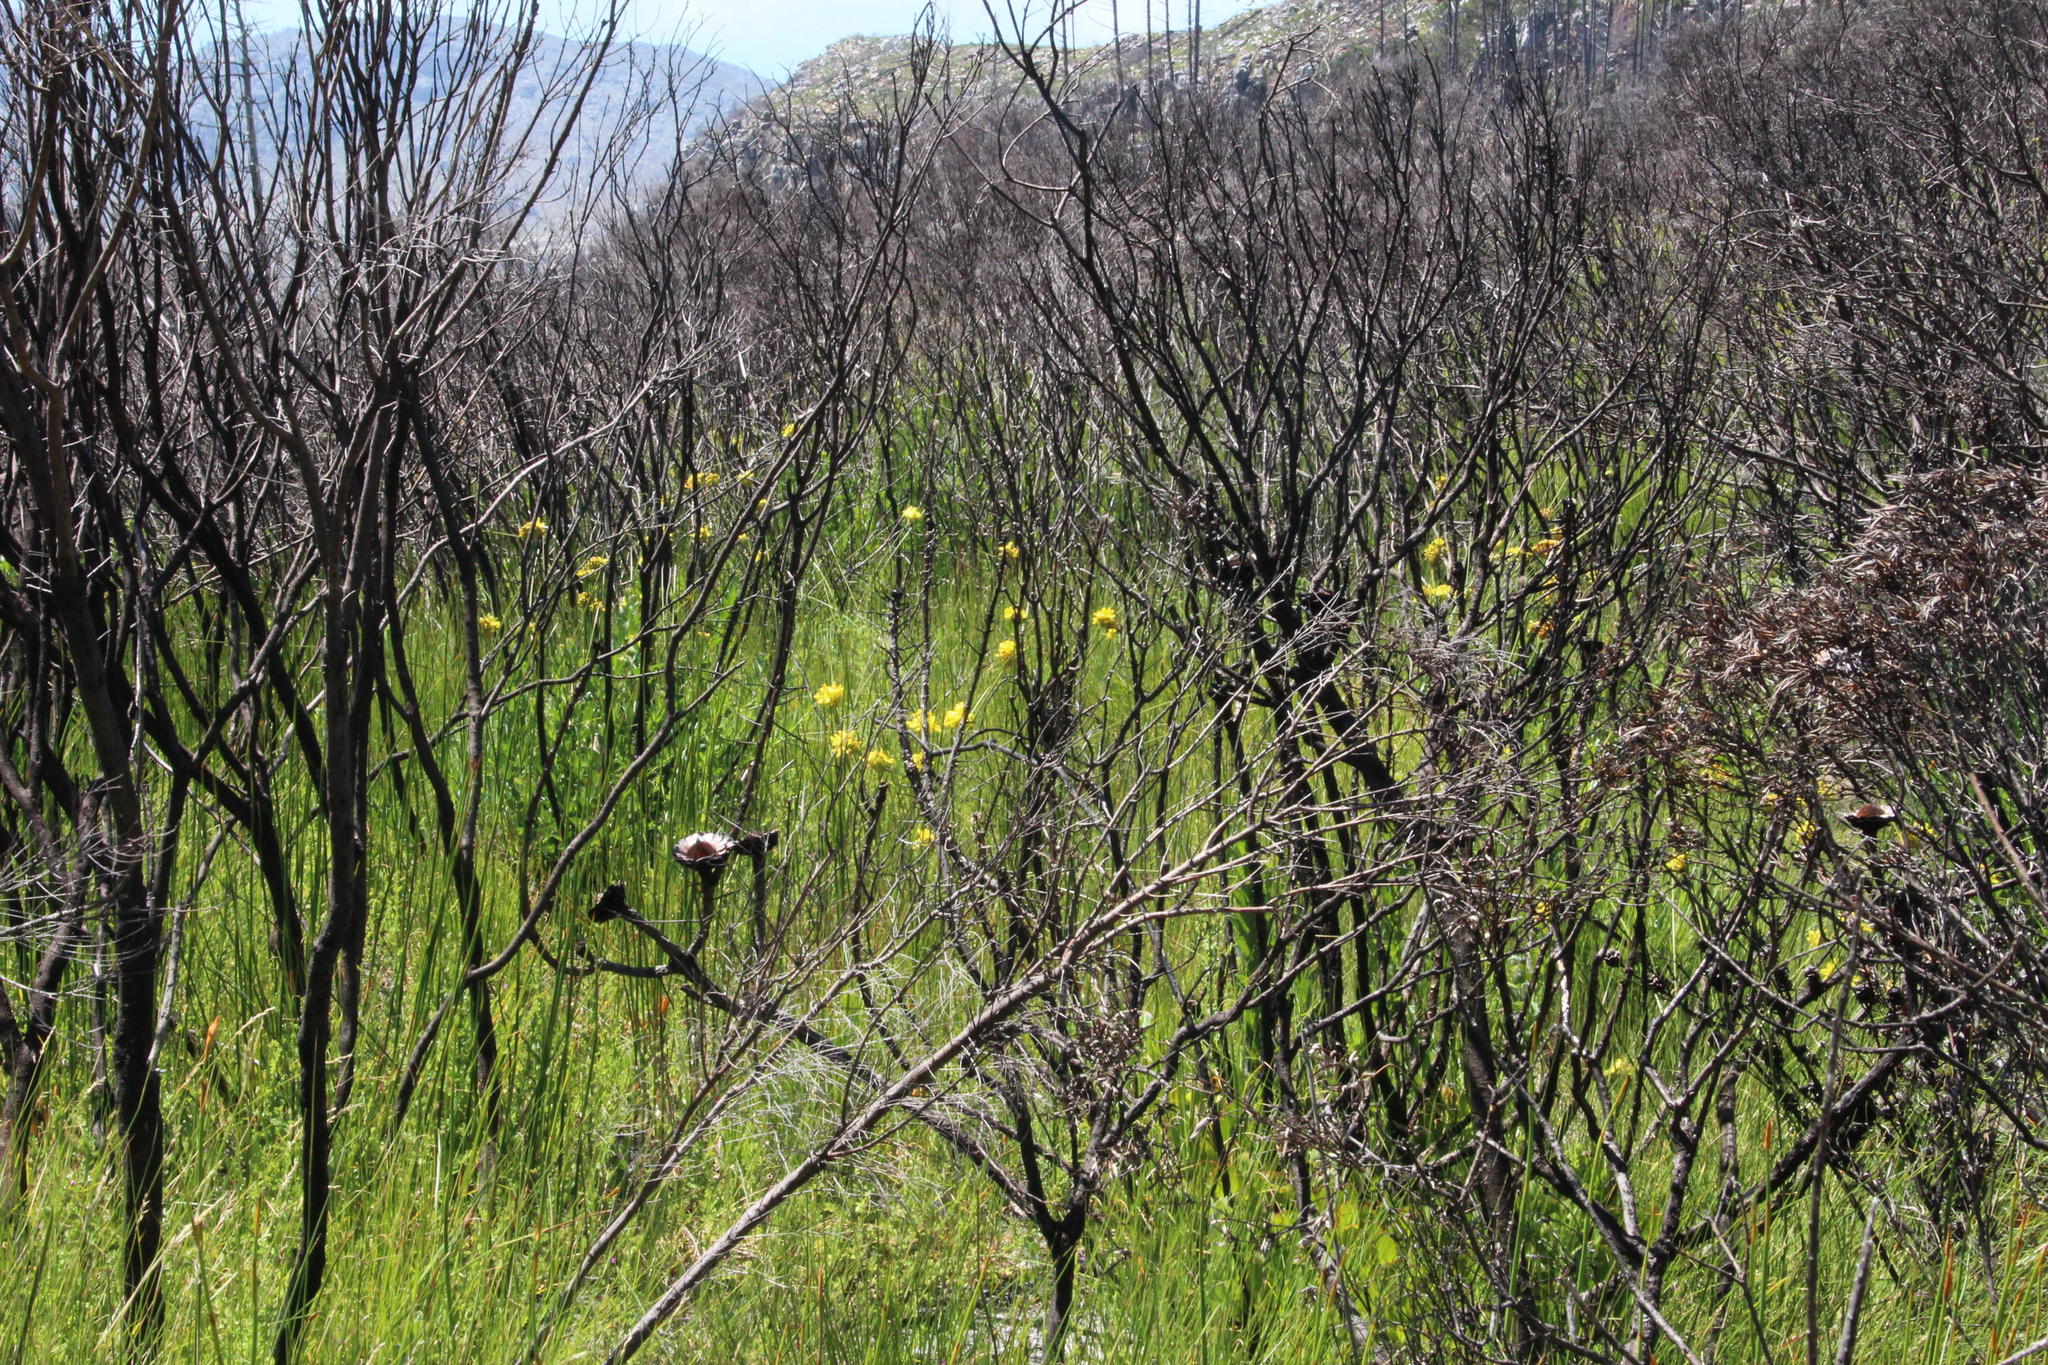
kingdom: Plantae
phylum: Tracheophyta
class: Liliopsida
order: Asparagales
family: Iridaceae
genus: Bobartia
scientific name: Bobartia indica
